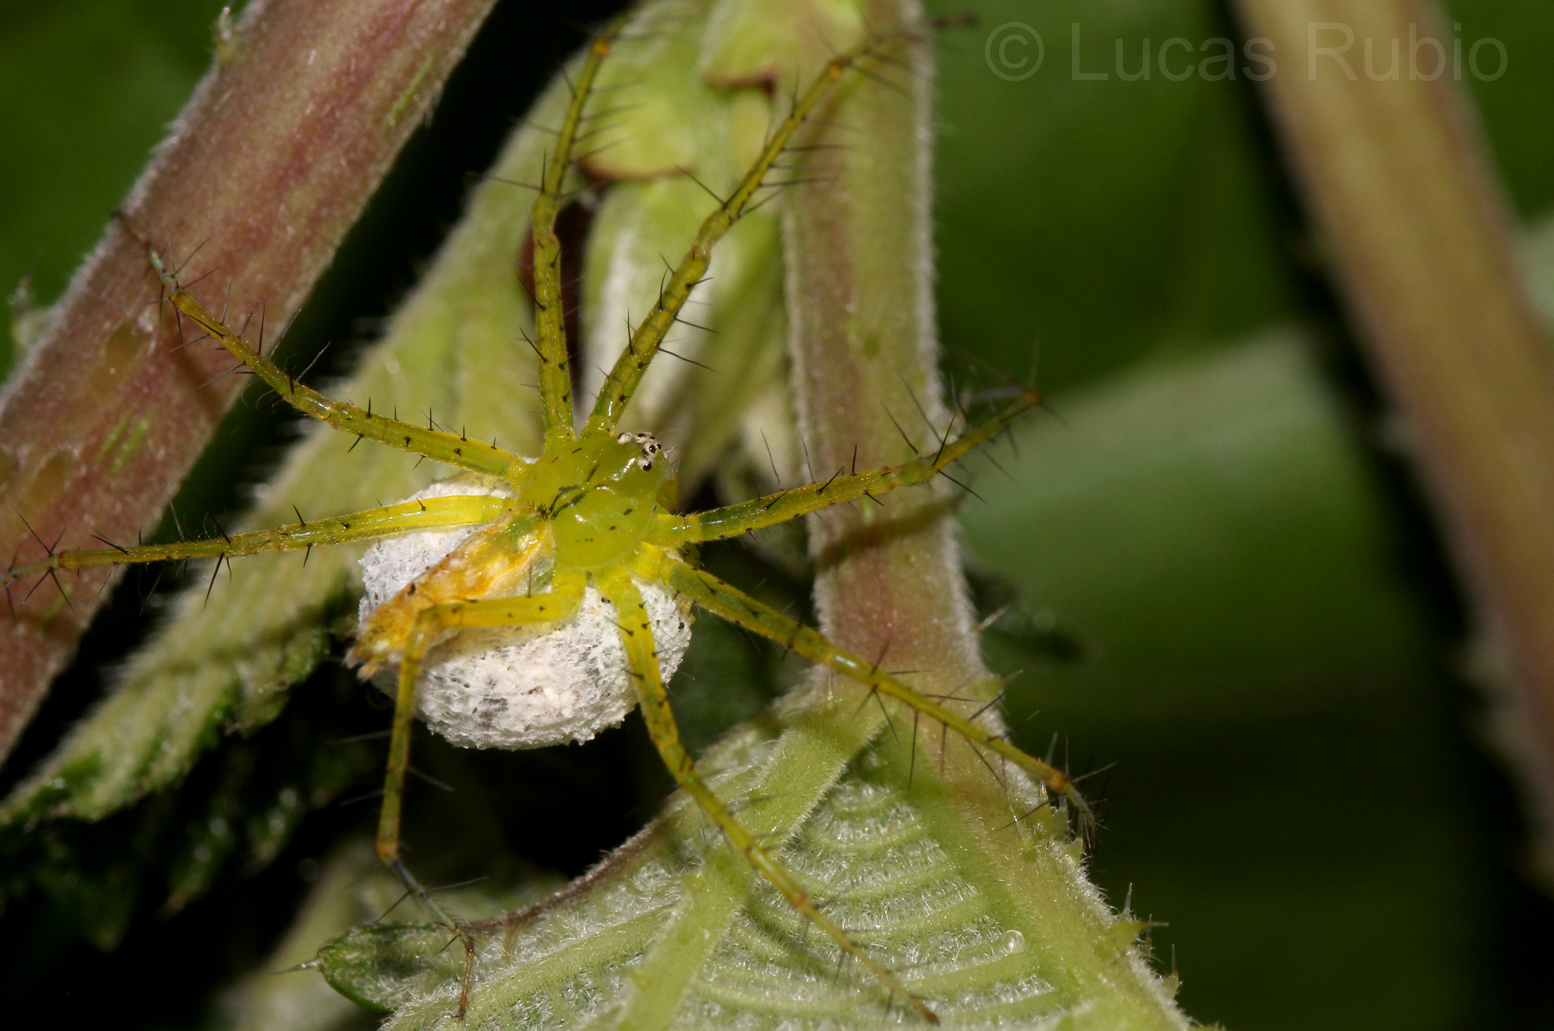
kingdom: Animalia
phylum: Arthropoda
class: Arachnida
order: Araneae
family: Pisauridae
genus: Architis
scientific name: Architis spinipes
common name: Nursery web spiders
